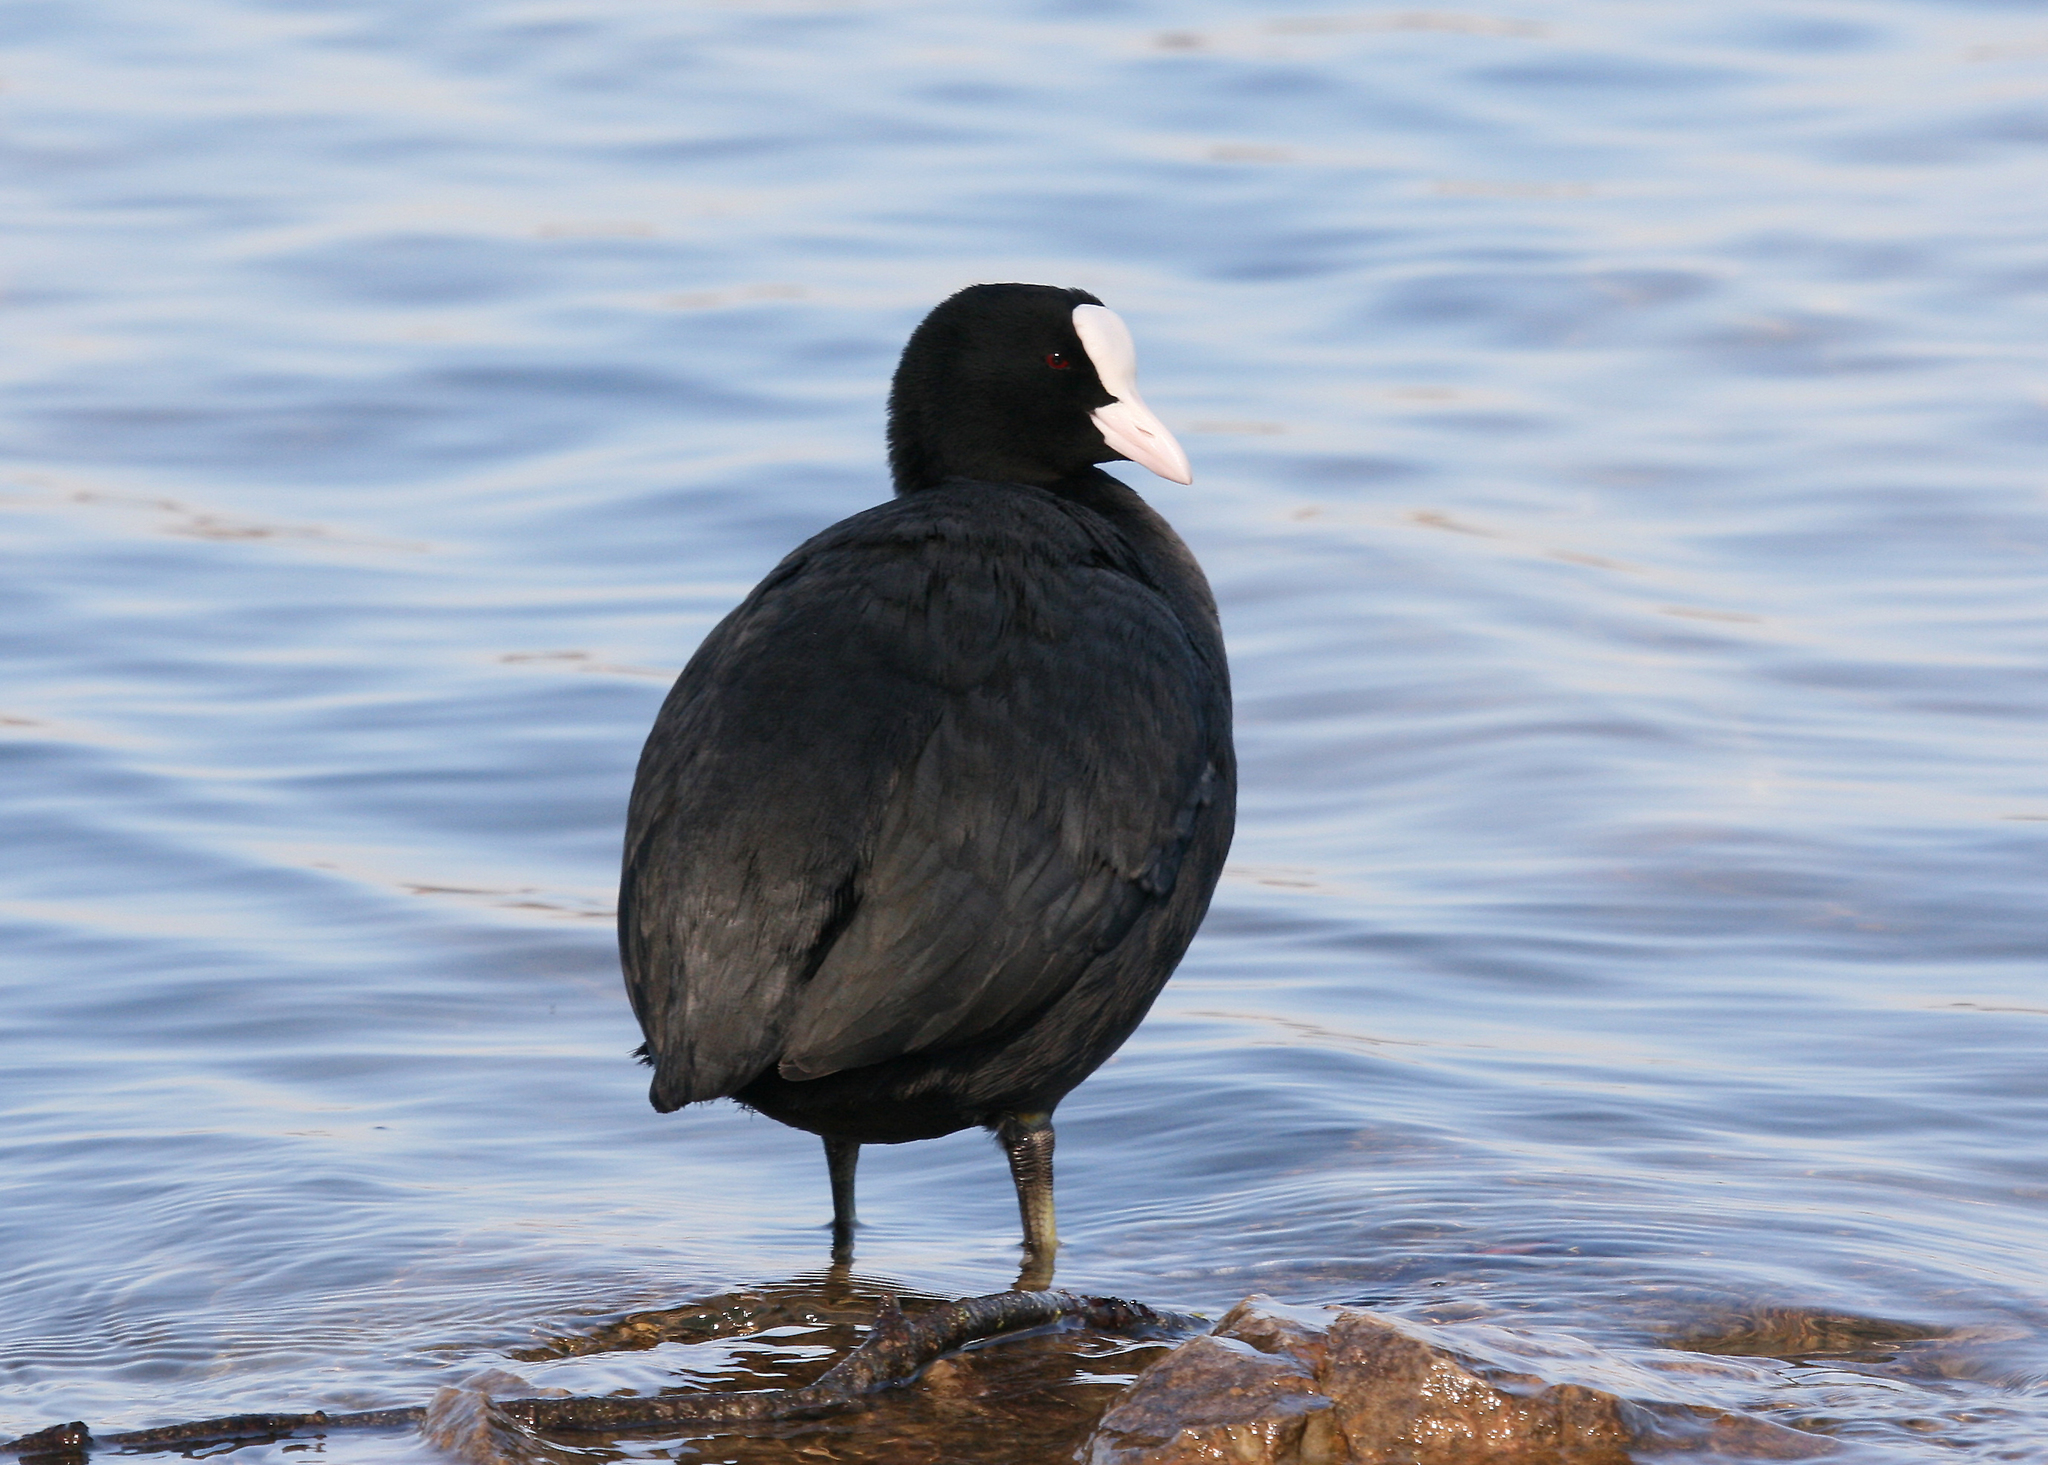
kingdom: Animalia
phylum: Chordata
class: Aves
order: Gruiformes
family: Rallidae
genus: Fulica
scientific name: Fulica atra
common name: Eurasian coot
